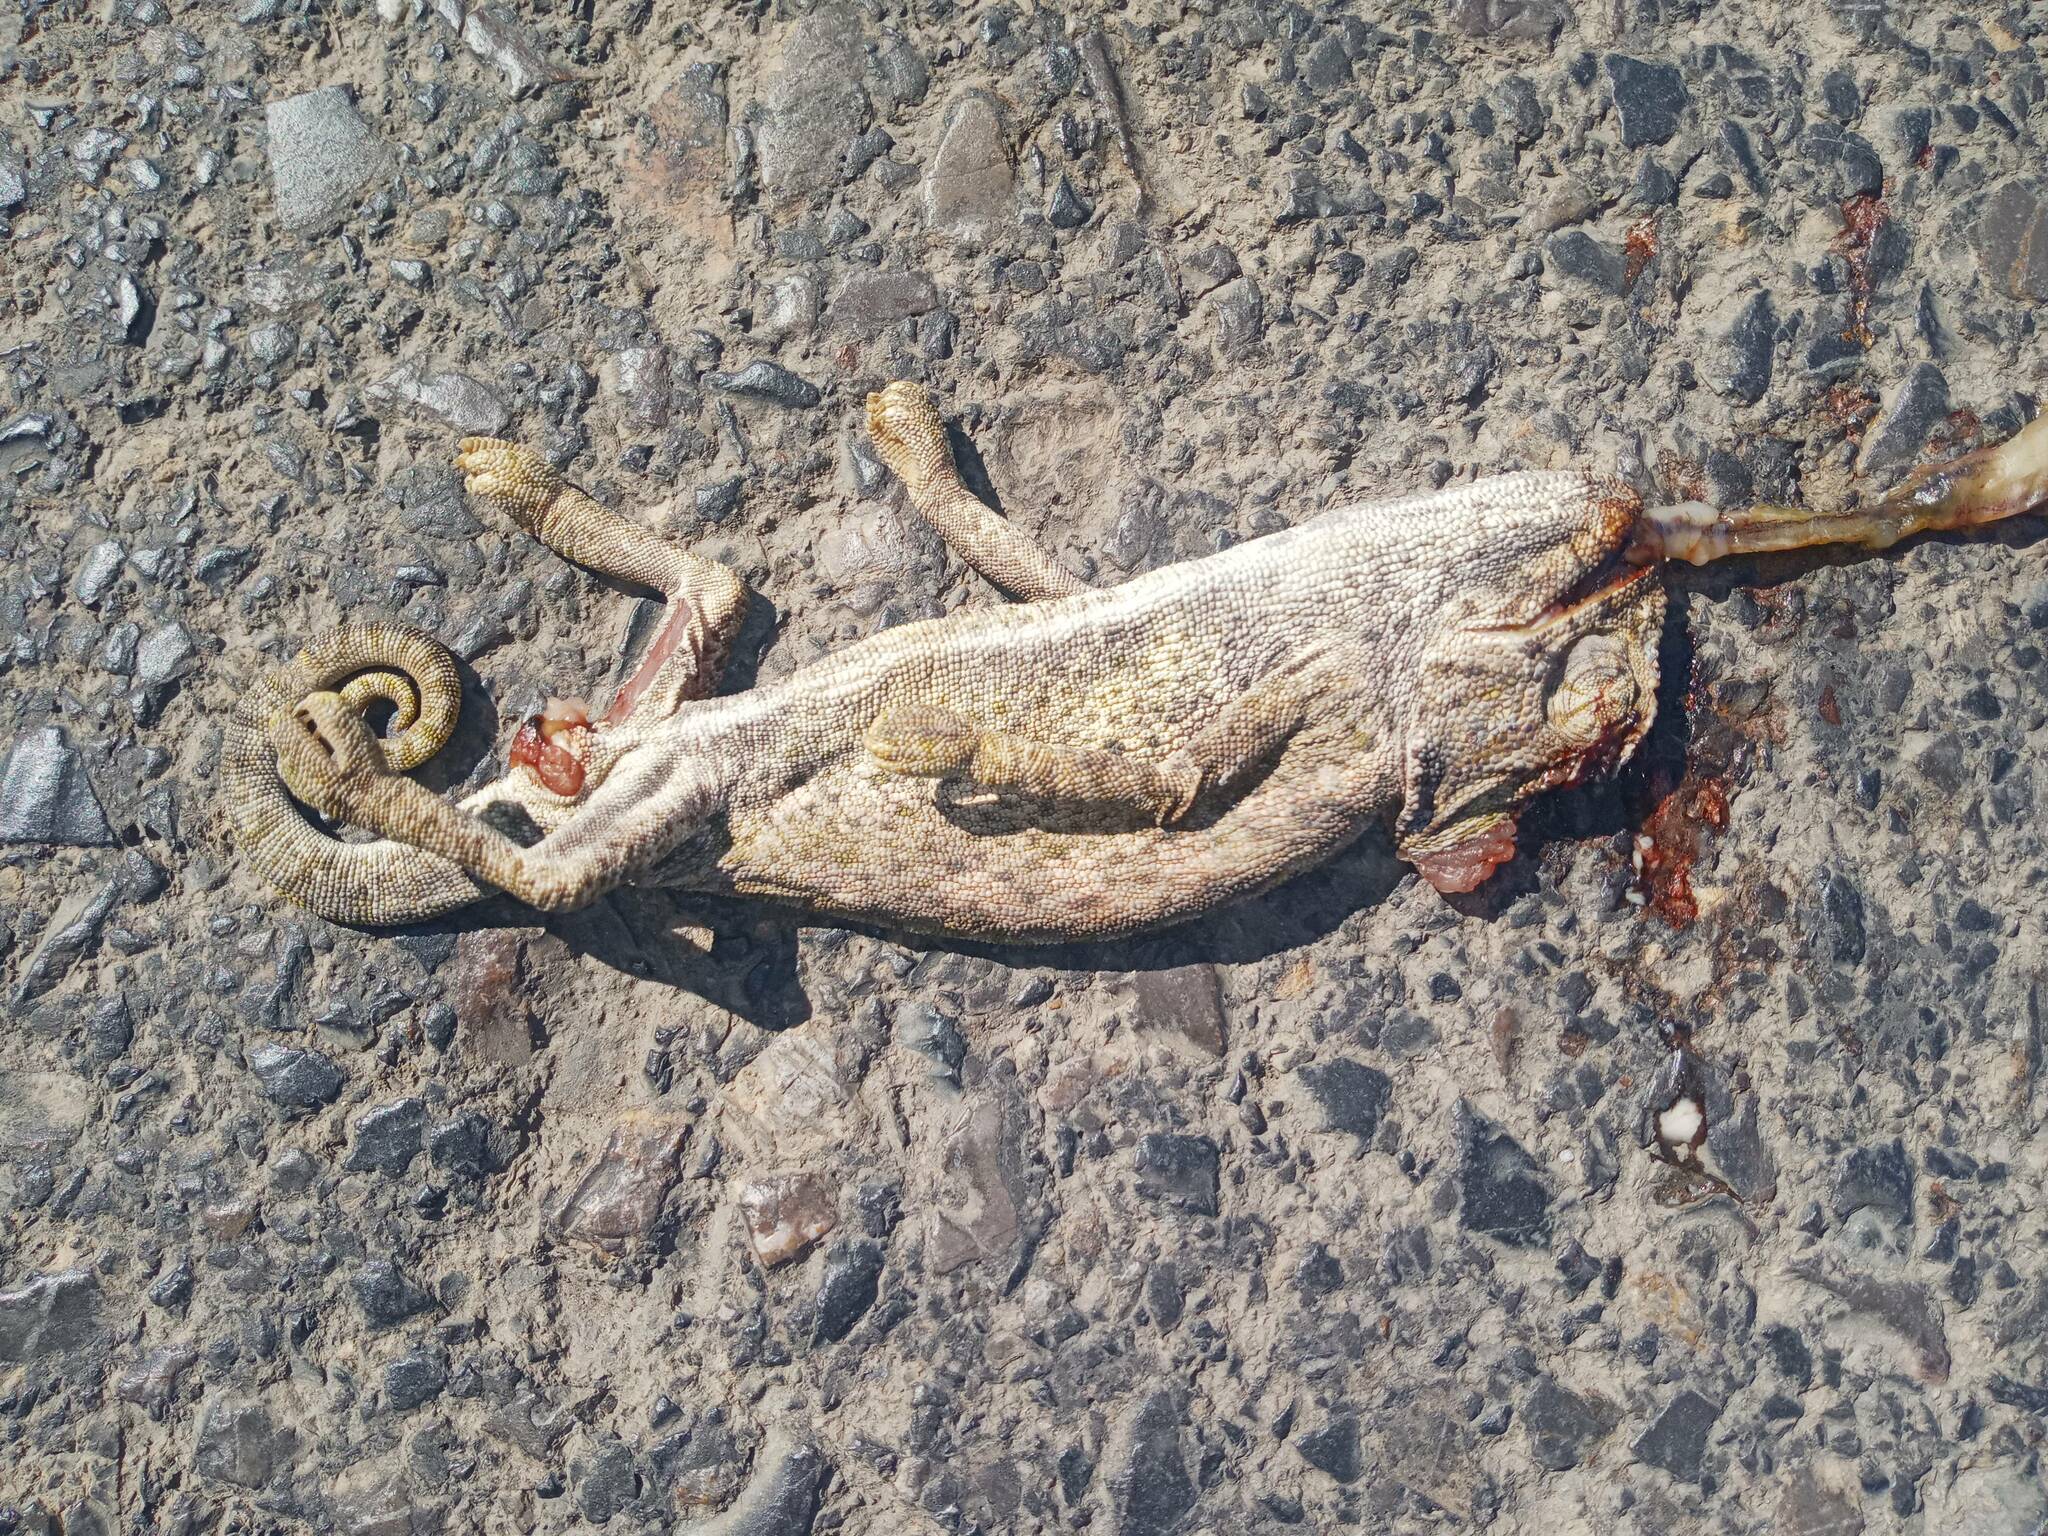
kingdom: Animalia
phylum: Chordata
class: Squamata
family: Chamaeleonidae
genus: Chamaeleo
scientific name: Chamaeleo chamaeleon
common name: Mediterranean chameleon
